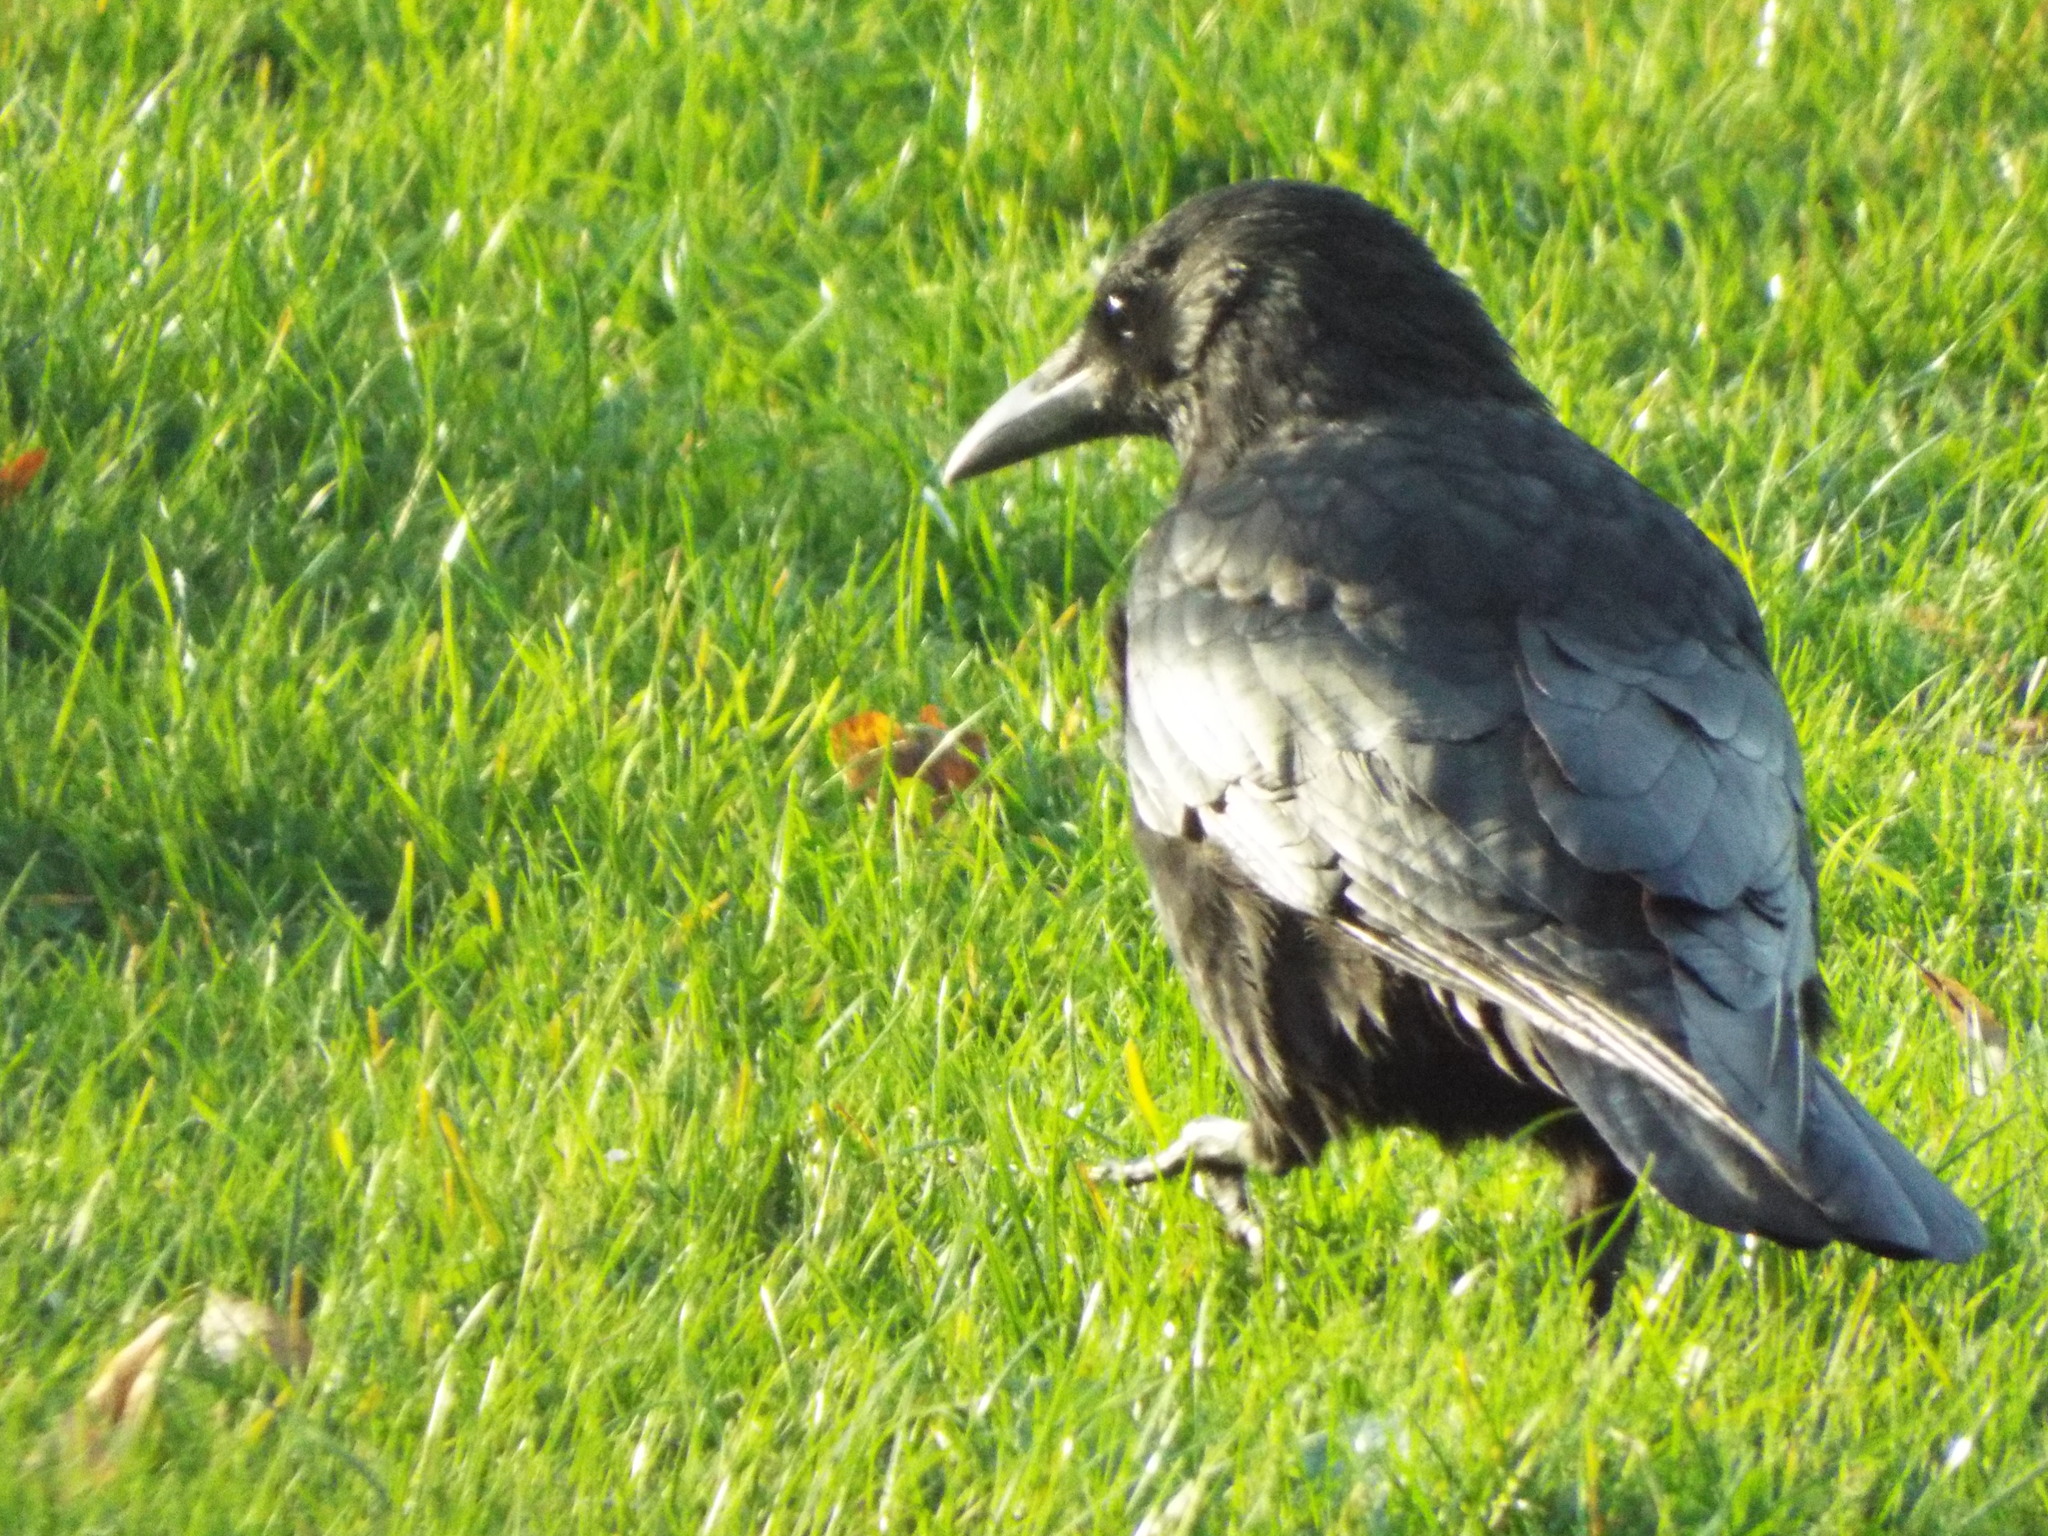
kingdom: Animalia
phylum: Chordata
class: Aves
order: Passeriformes
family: Corvidae
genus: Corvus
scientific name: Corvus corone
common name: Carrion crow
